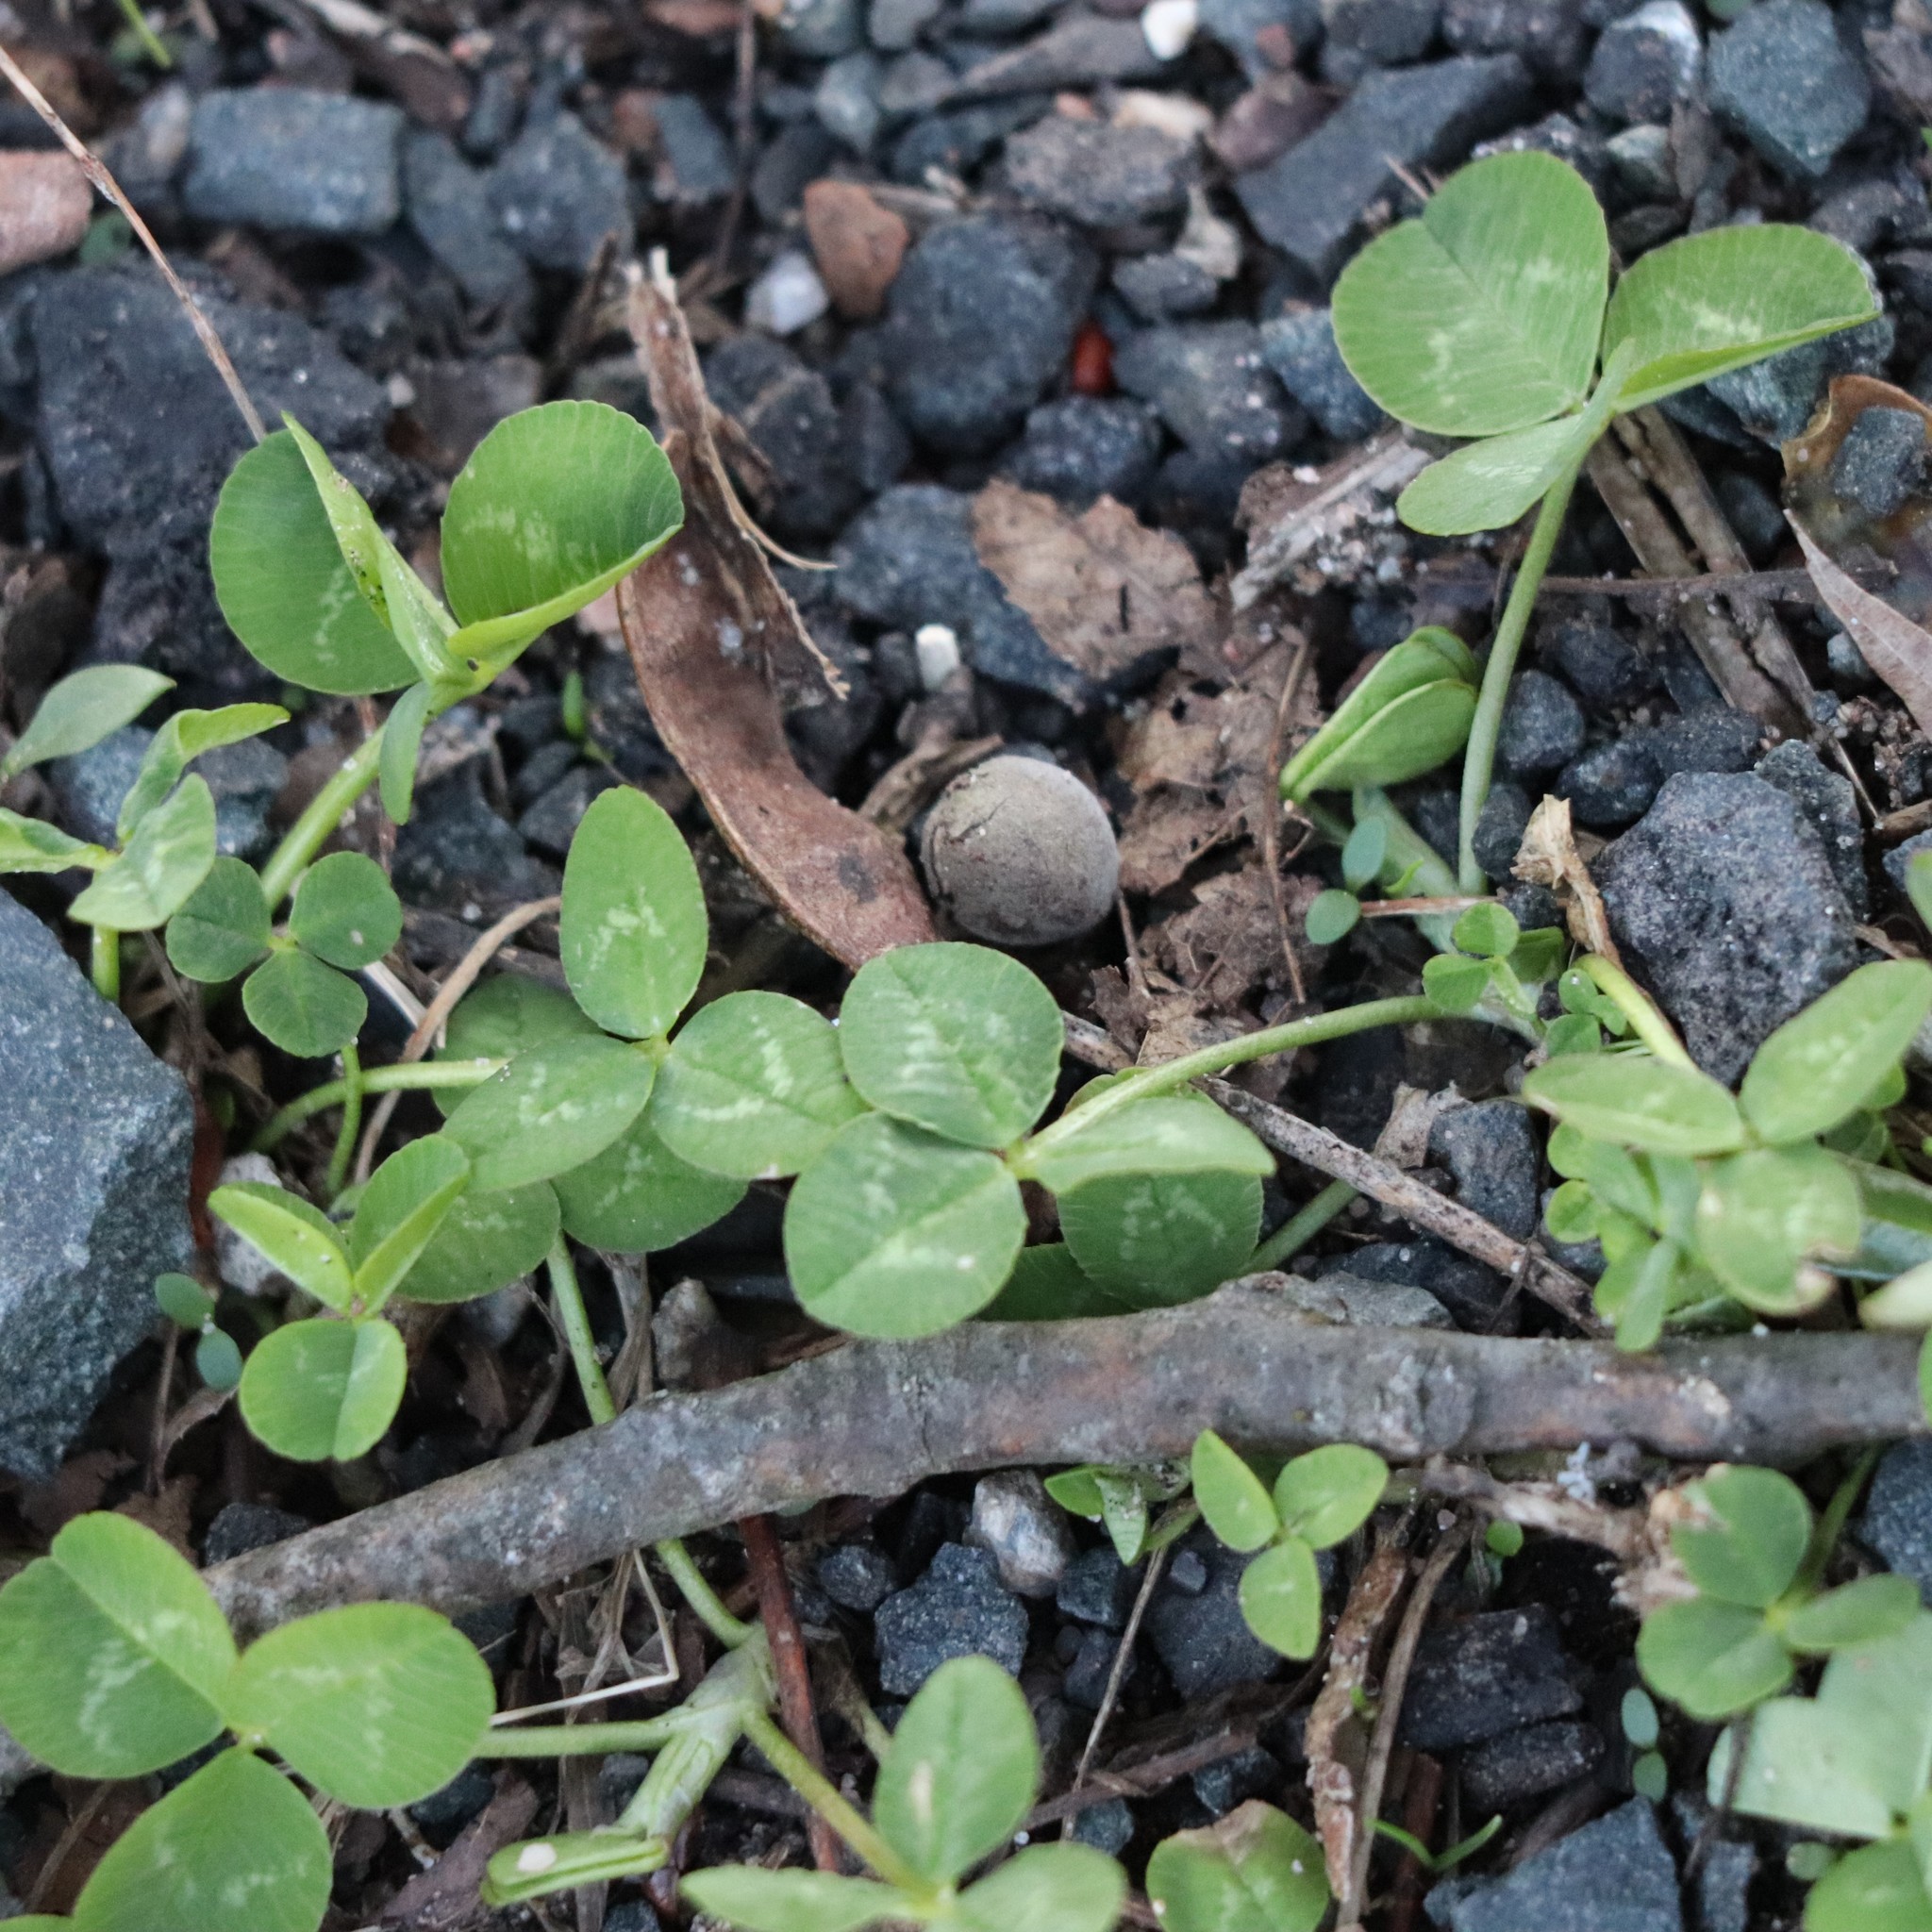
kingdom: Plantae
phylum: Tracheophyta
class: Magnoliopsida
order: Fabales
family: Fabaceae
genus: Trifolium
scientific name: Trifolium repens
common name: White clover
